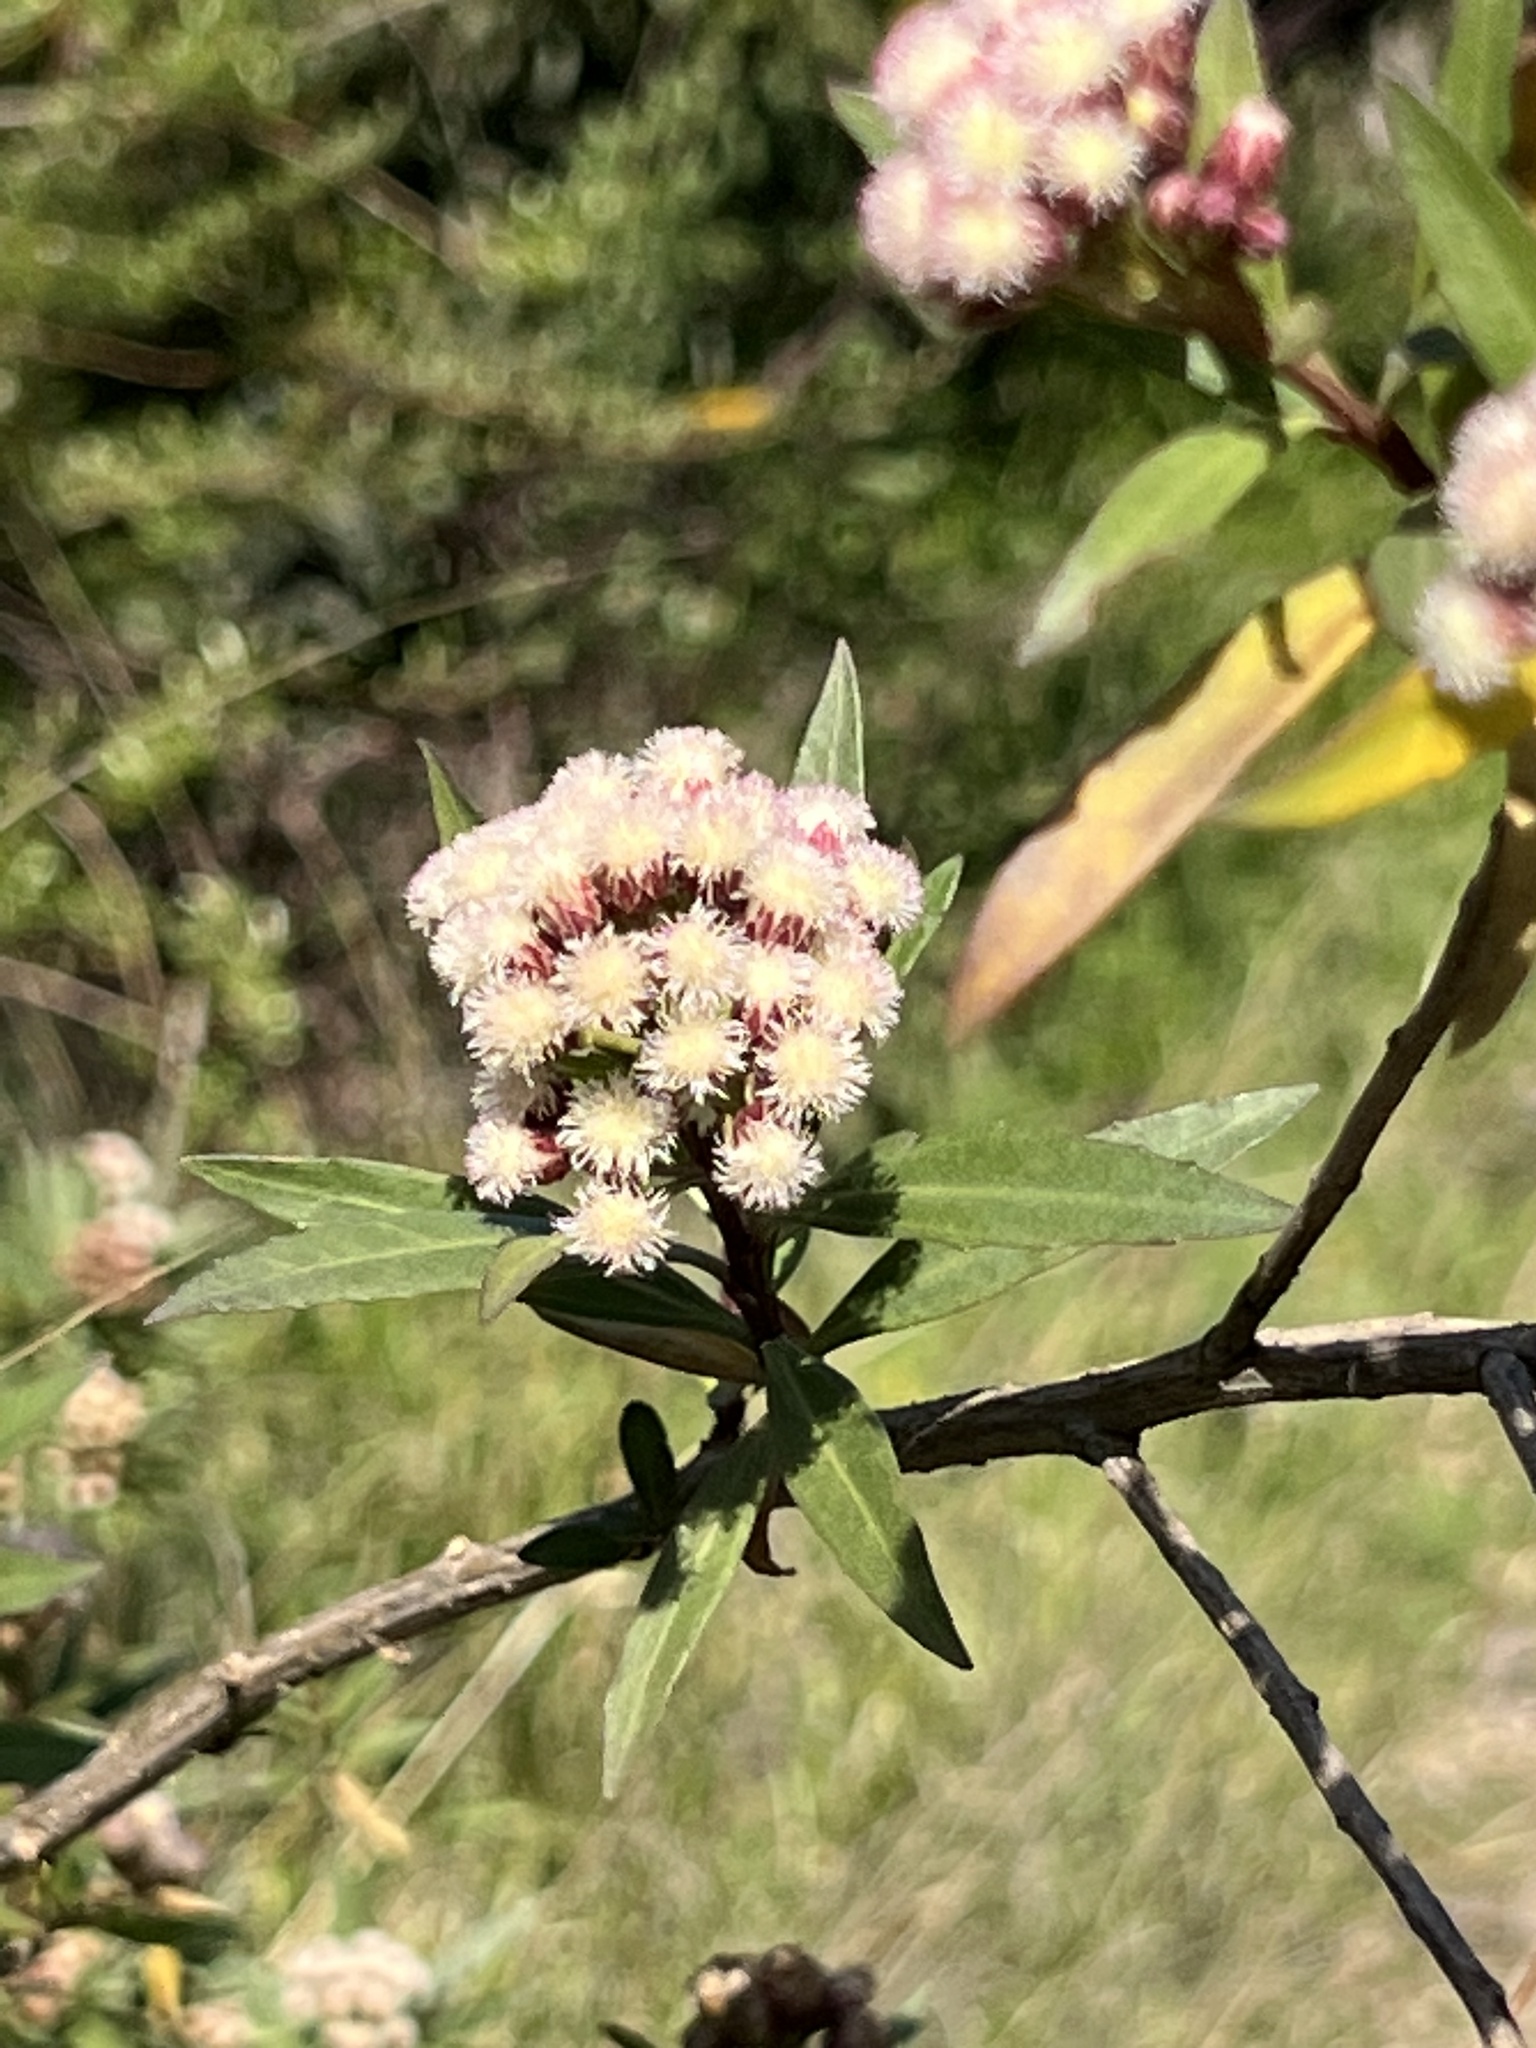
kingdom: Plantae
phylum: Tracheophyta
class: Magnoliopsida
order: Asterales
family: Asteraceae
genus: Baccharis
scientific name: Baccharis salicifolia
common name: Sticky baccharis
